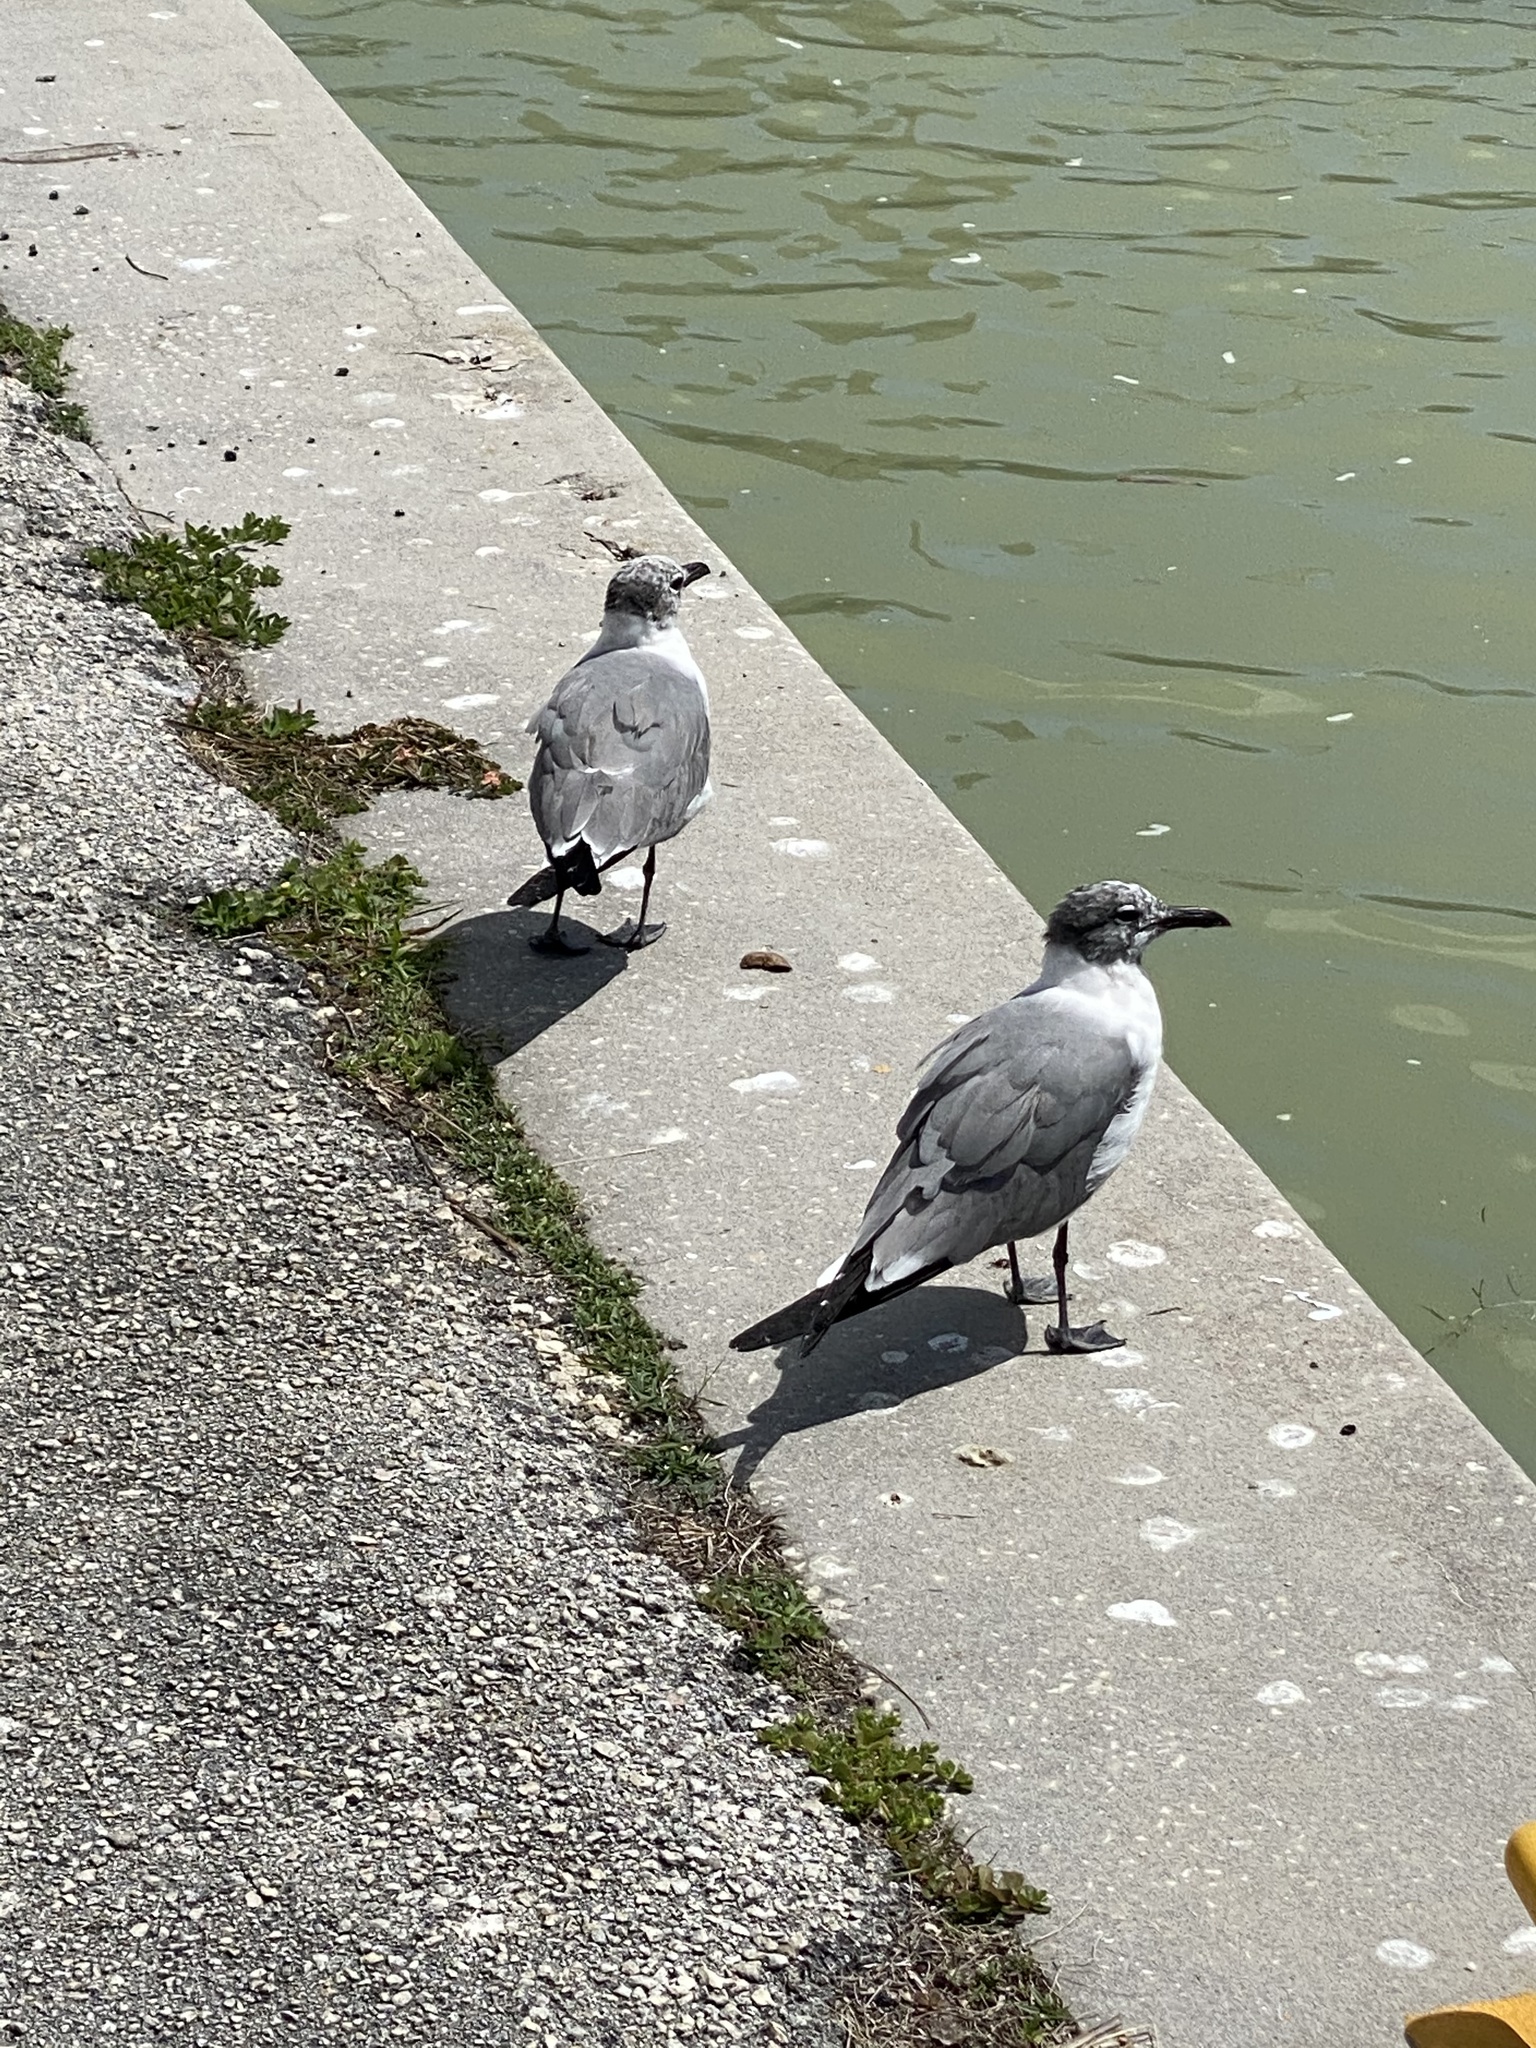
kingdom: Animalia
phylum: Chordata
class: Aves
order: Charadriiformes
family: Laridae
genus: Leucophaeus
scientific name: Leucophaeus atricilla
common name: Laughing gull
